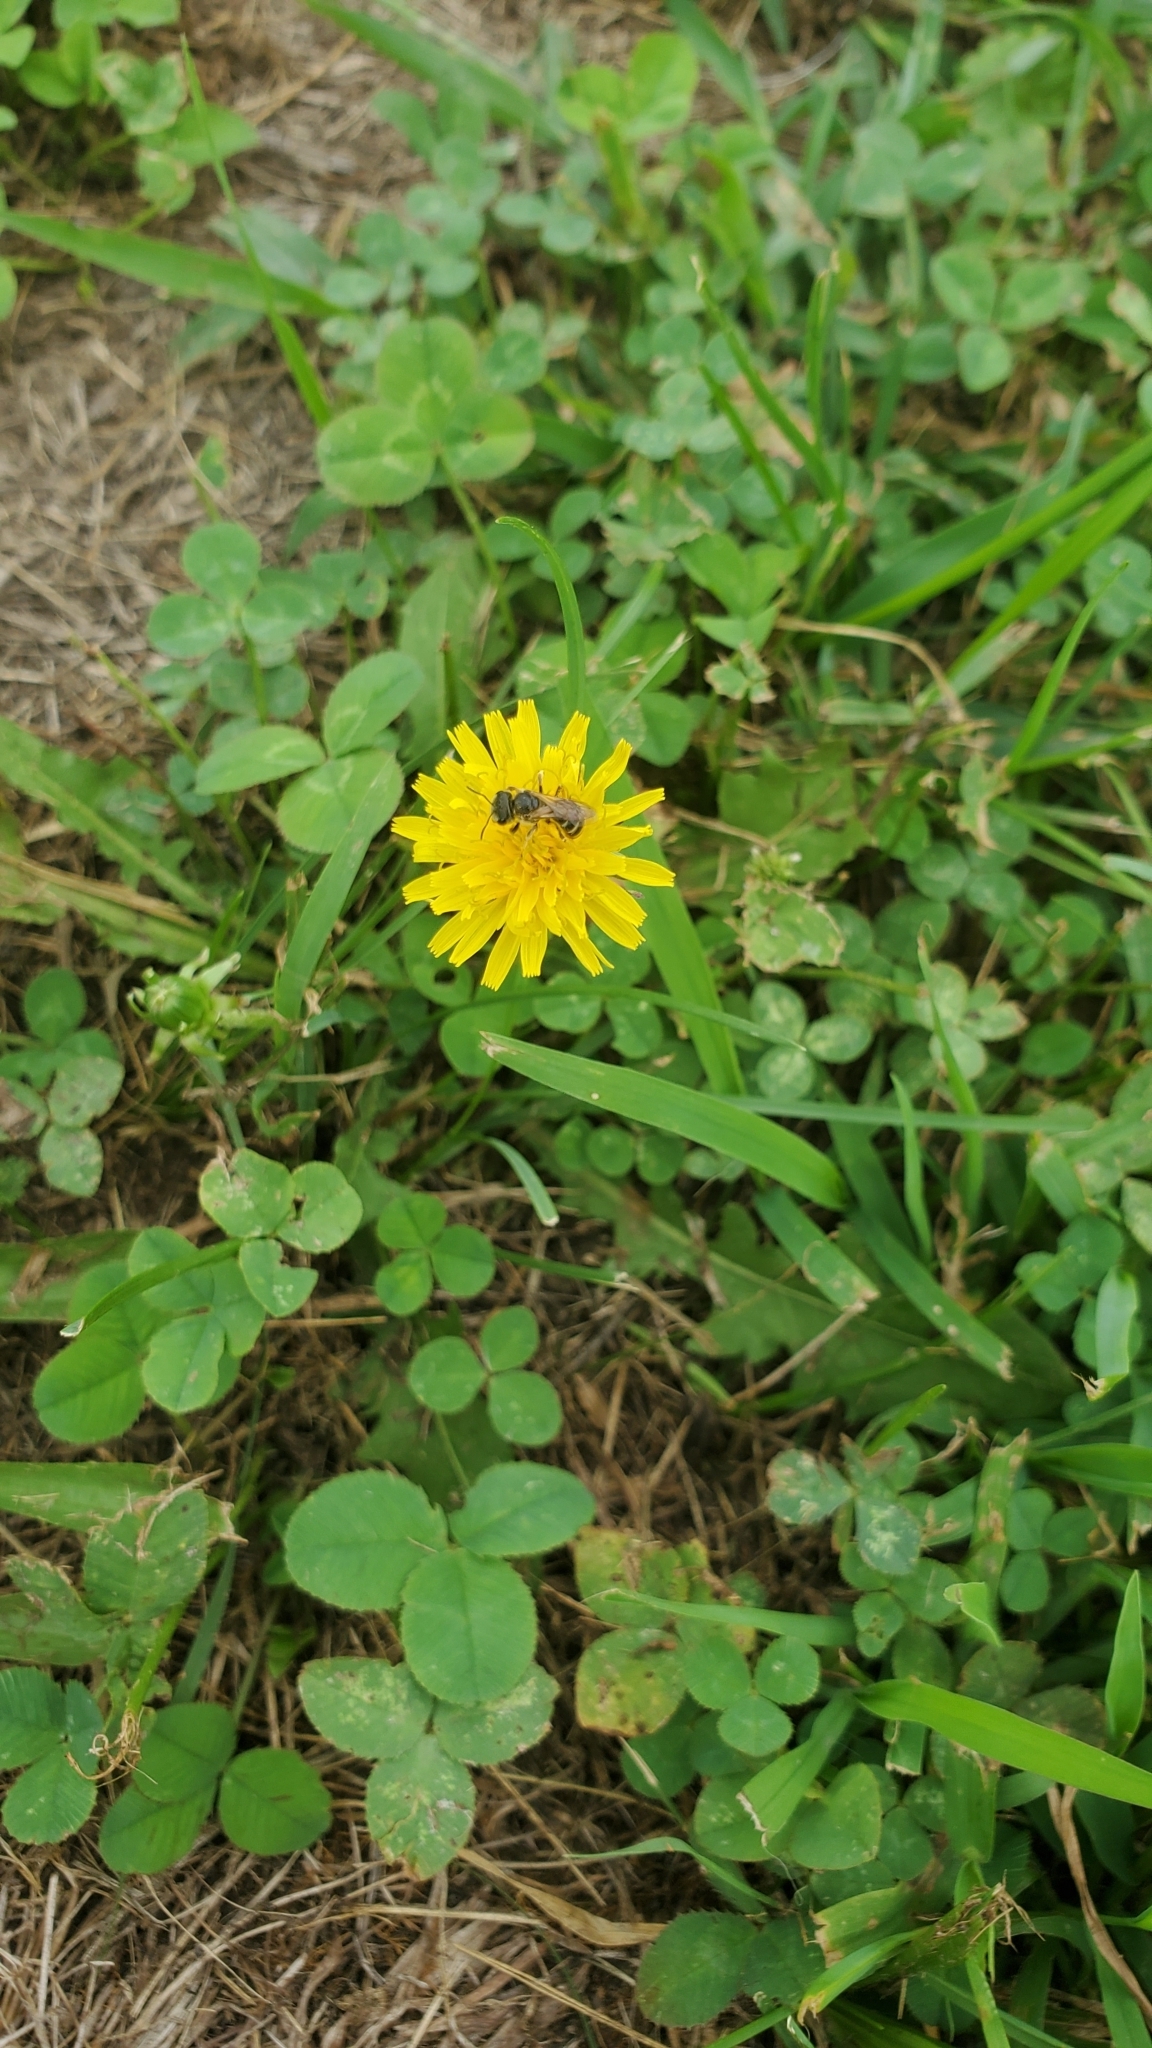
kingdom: Plantae
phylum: Tracheophyta
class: Magnoliopsida
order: Asterales
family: Asteraceae
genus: Taraxacum
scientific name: Taraxacum officinale
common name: Common dandelion
